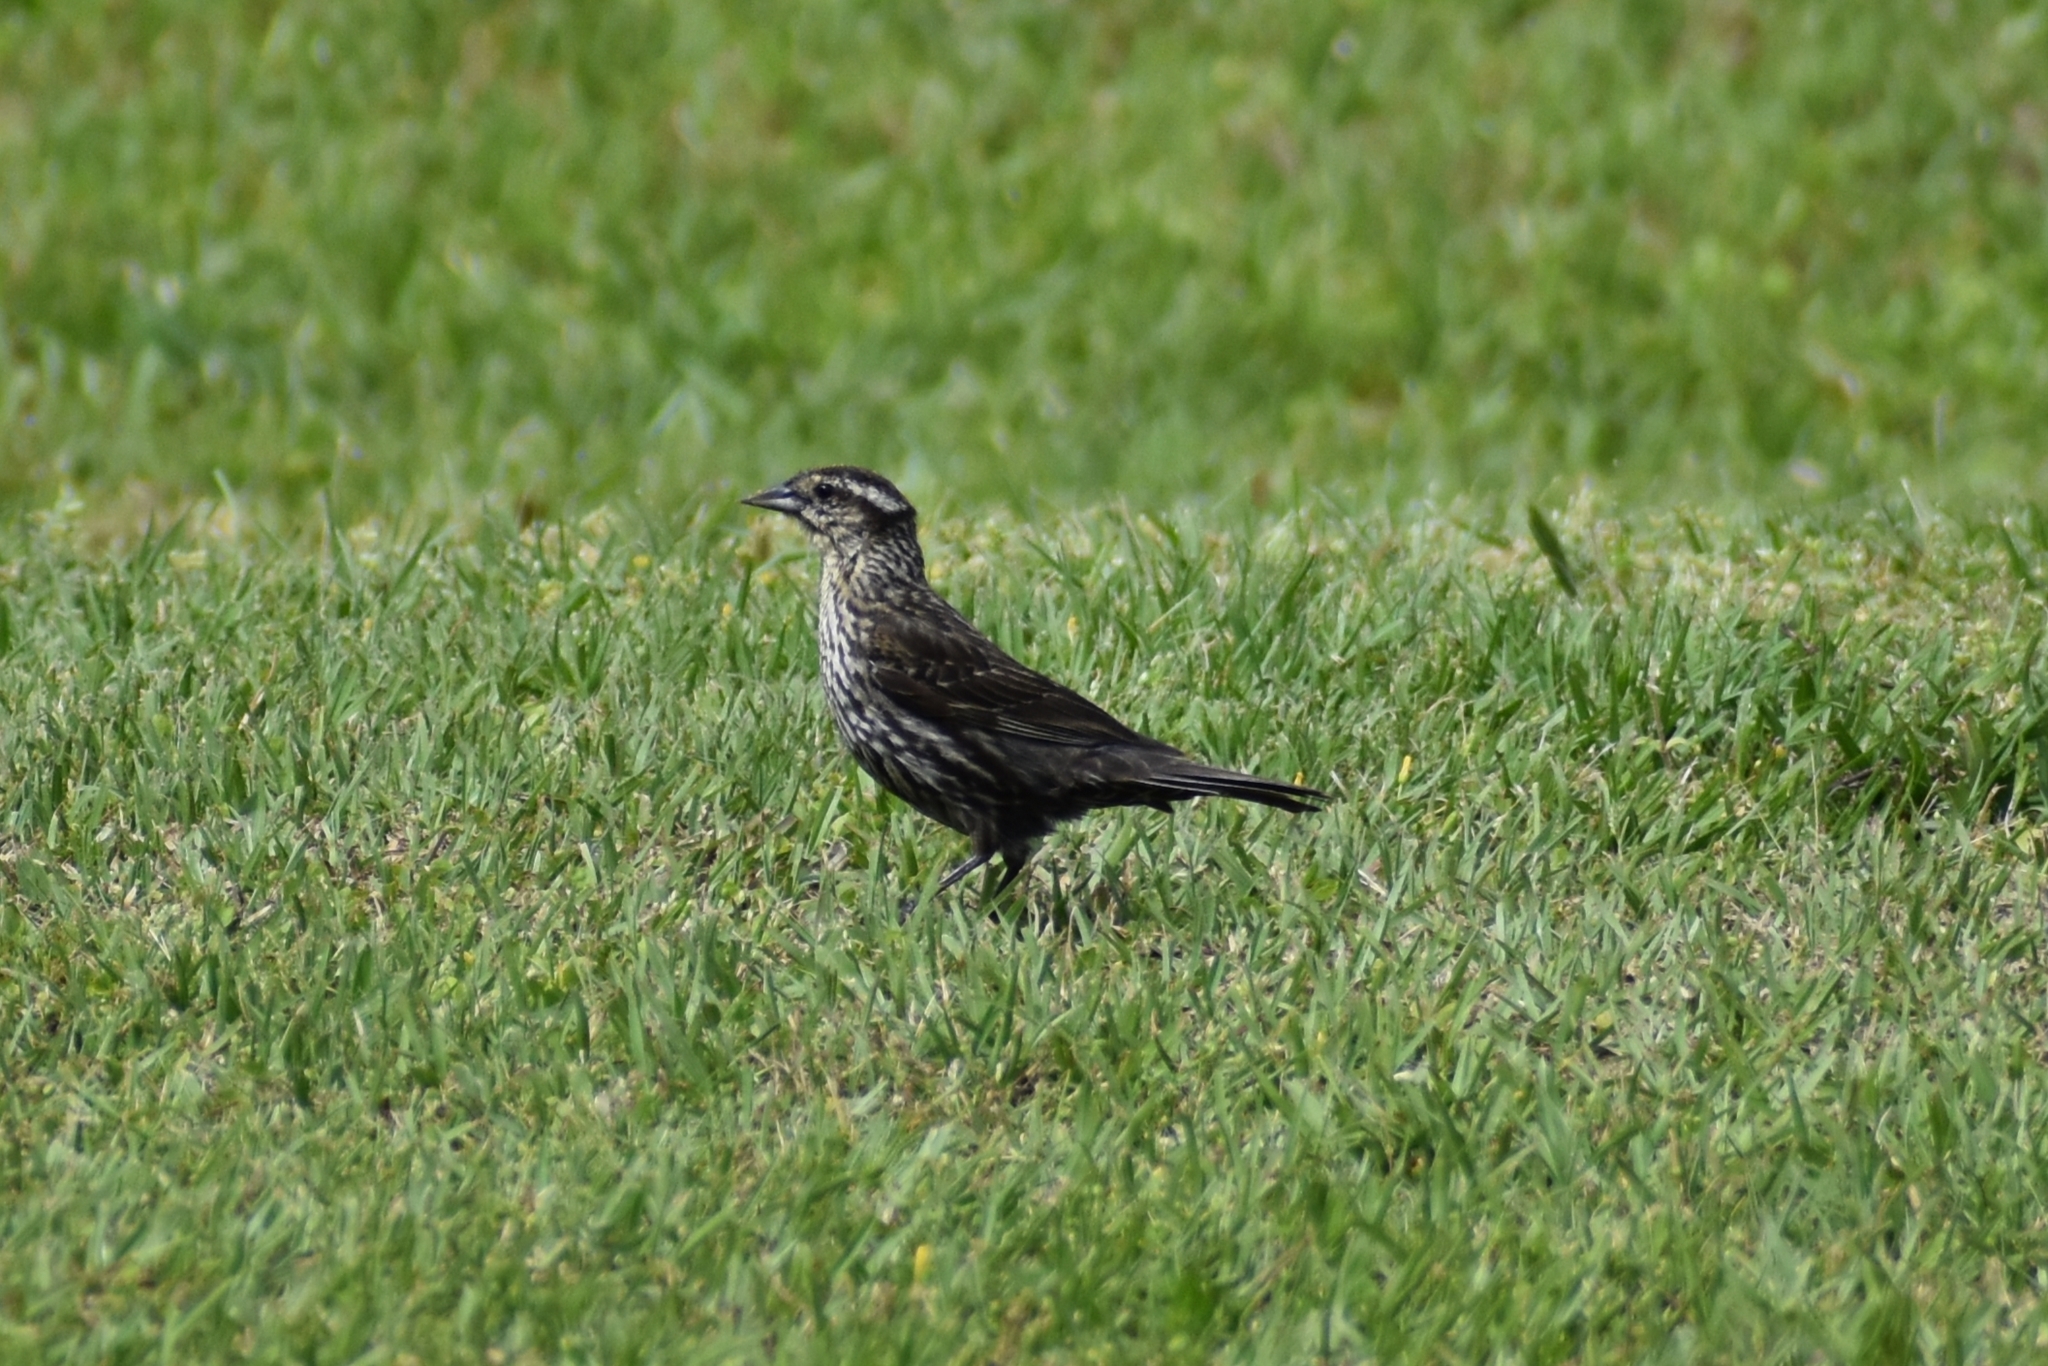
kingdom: Animalia
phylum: Chordata
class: Aves
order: Passeriformes
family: Icteridae
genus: Agelaius
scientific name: Agelaius phoeniceus
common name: Red-winged blackbird
